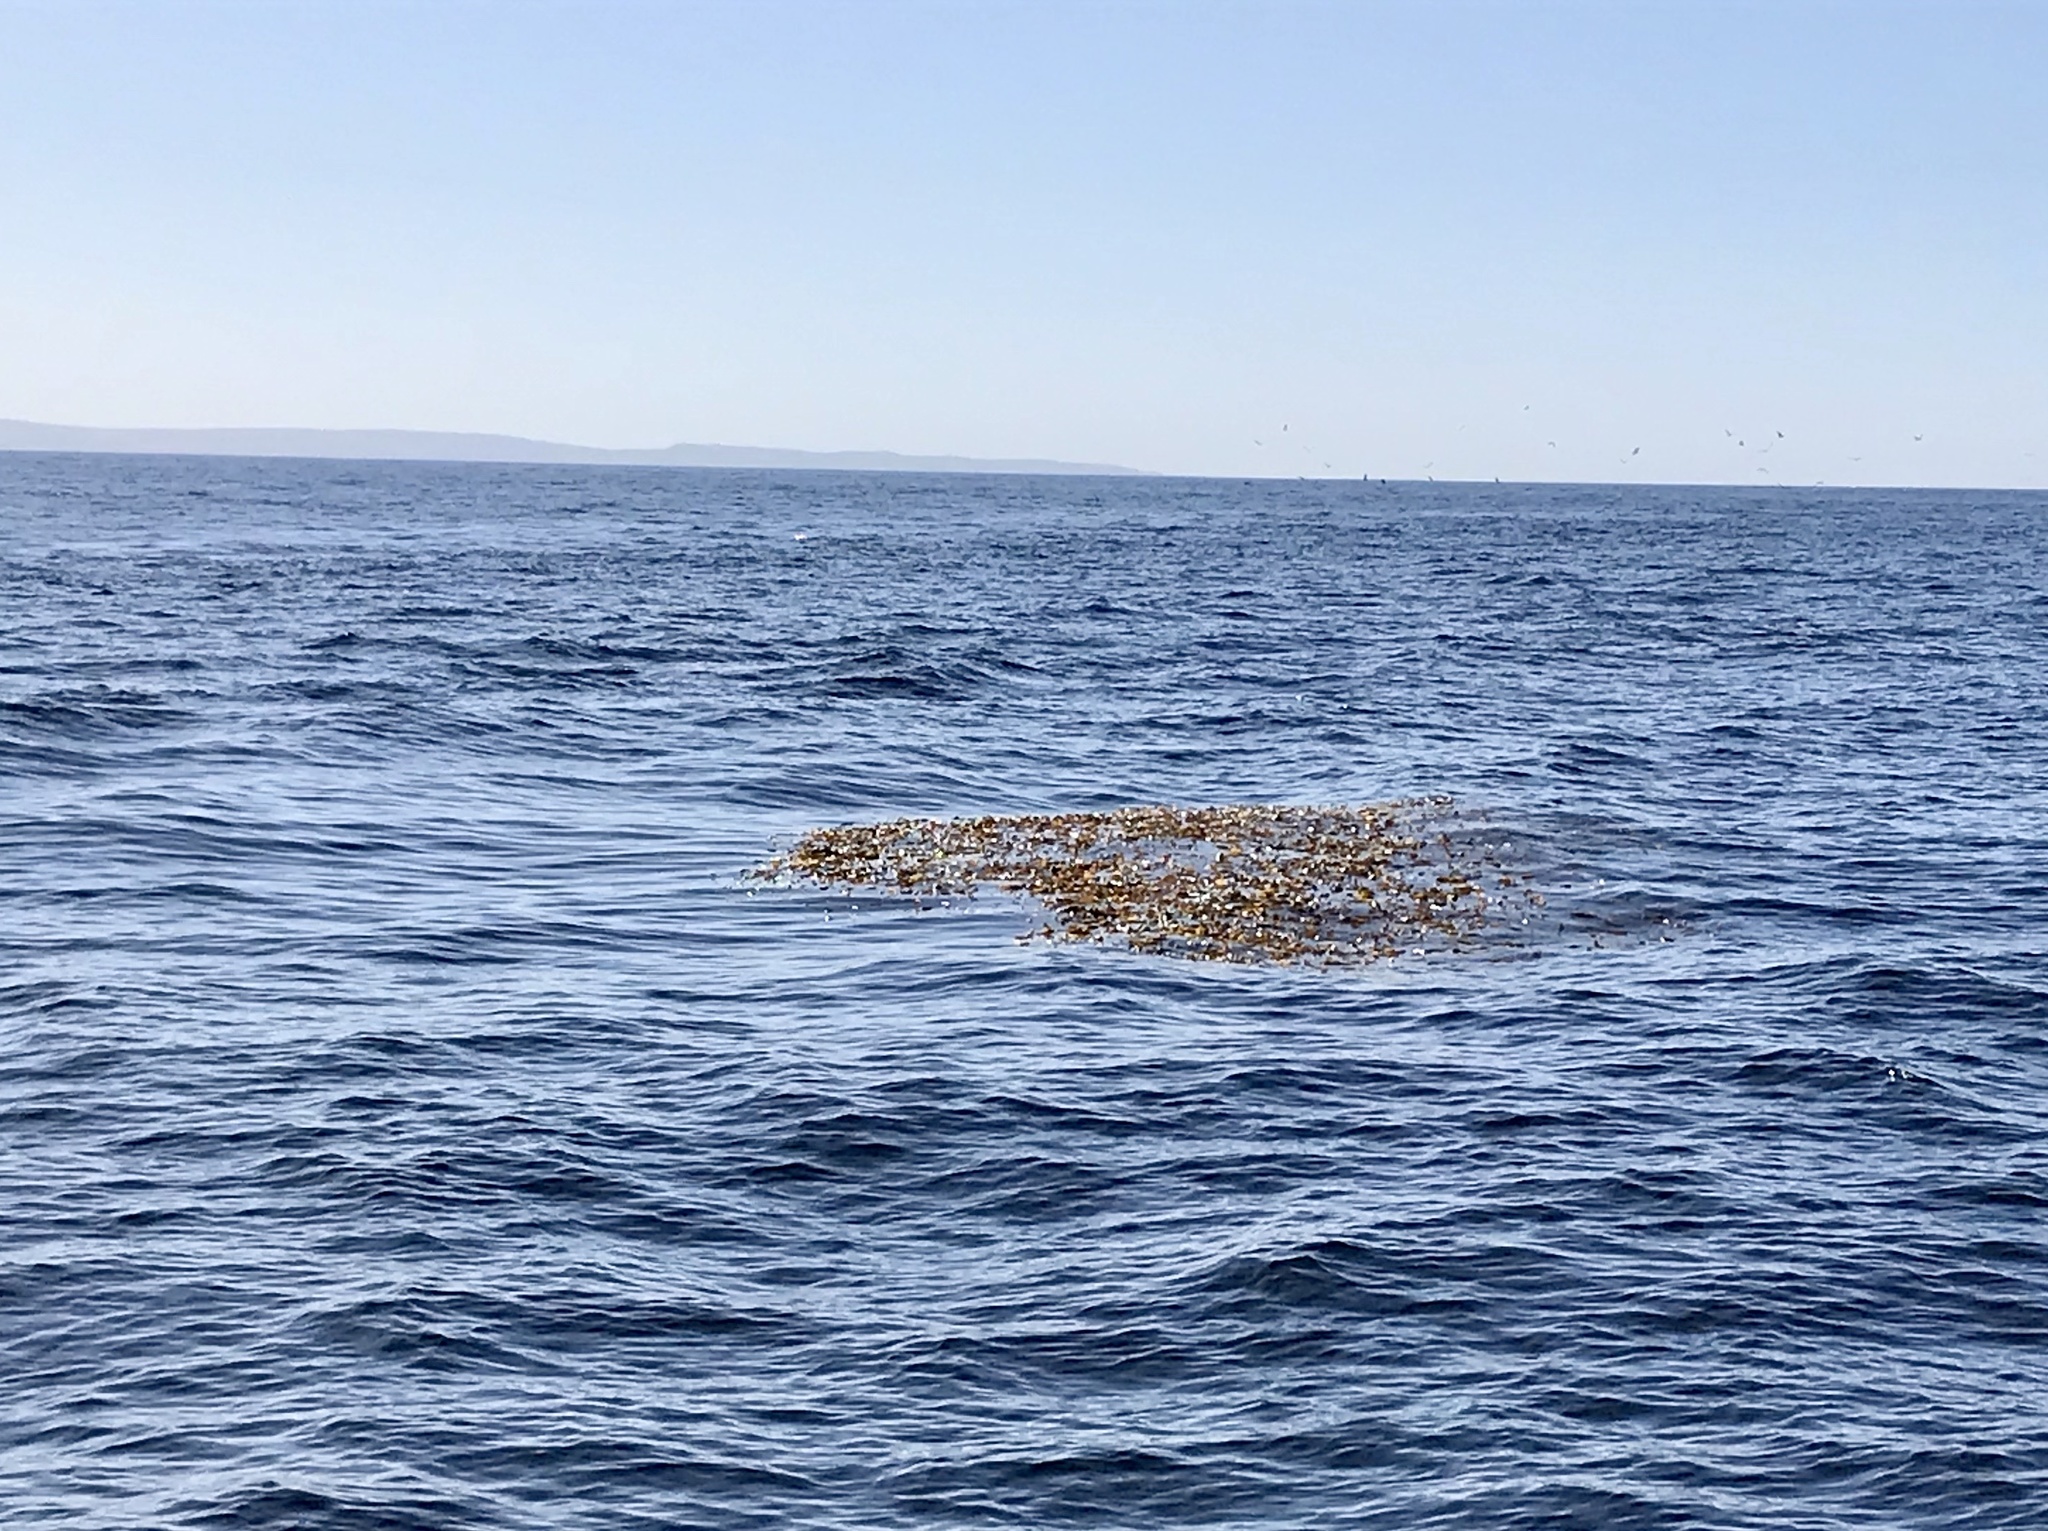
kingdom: Chromista
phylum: Ochrophyta
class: Phaeophyceae
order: Laminariales
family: Laminariaceae
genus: Macrocystis
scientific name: Macrocystis pyrifera
